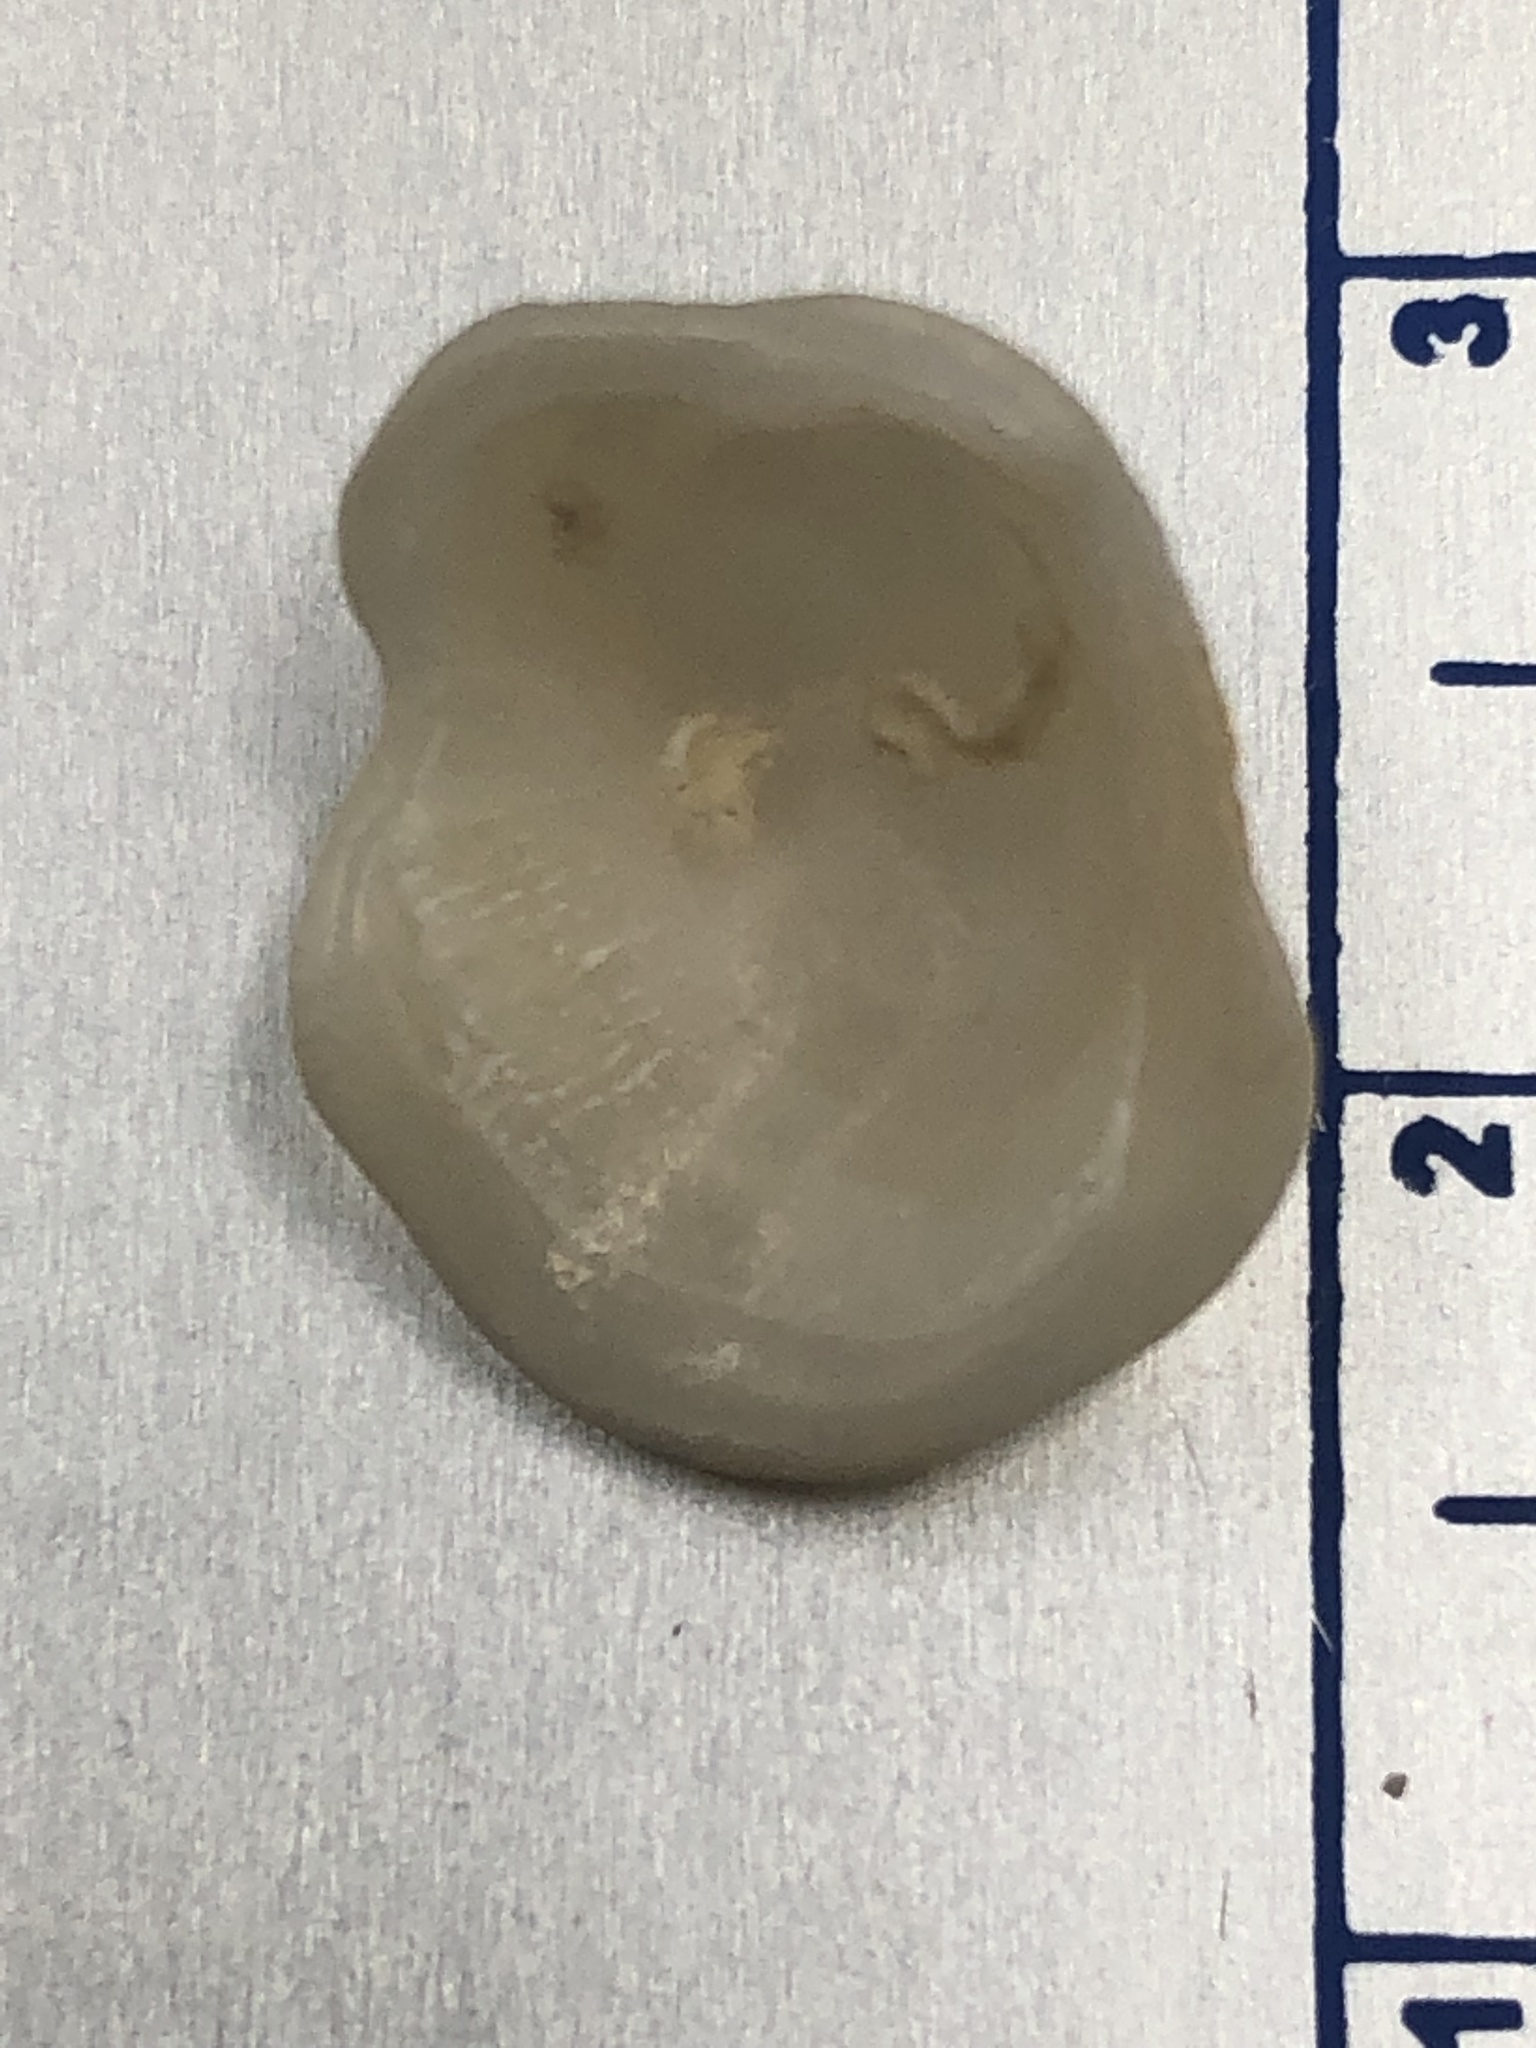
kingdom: Animalia
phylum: Mollusca
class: Bivalvia
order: Venerida
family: Chamidae
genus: Chama
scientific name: Chama congregata
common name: Corrugate jewelbox
